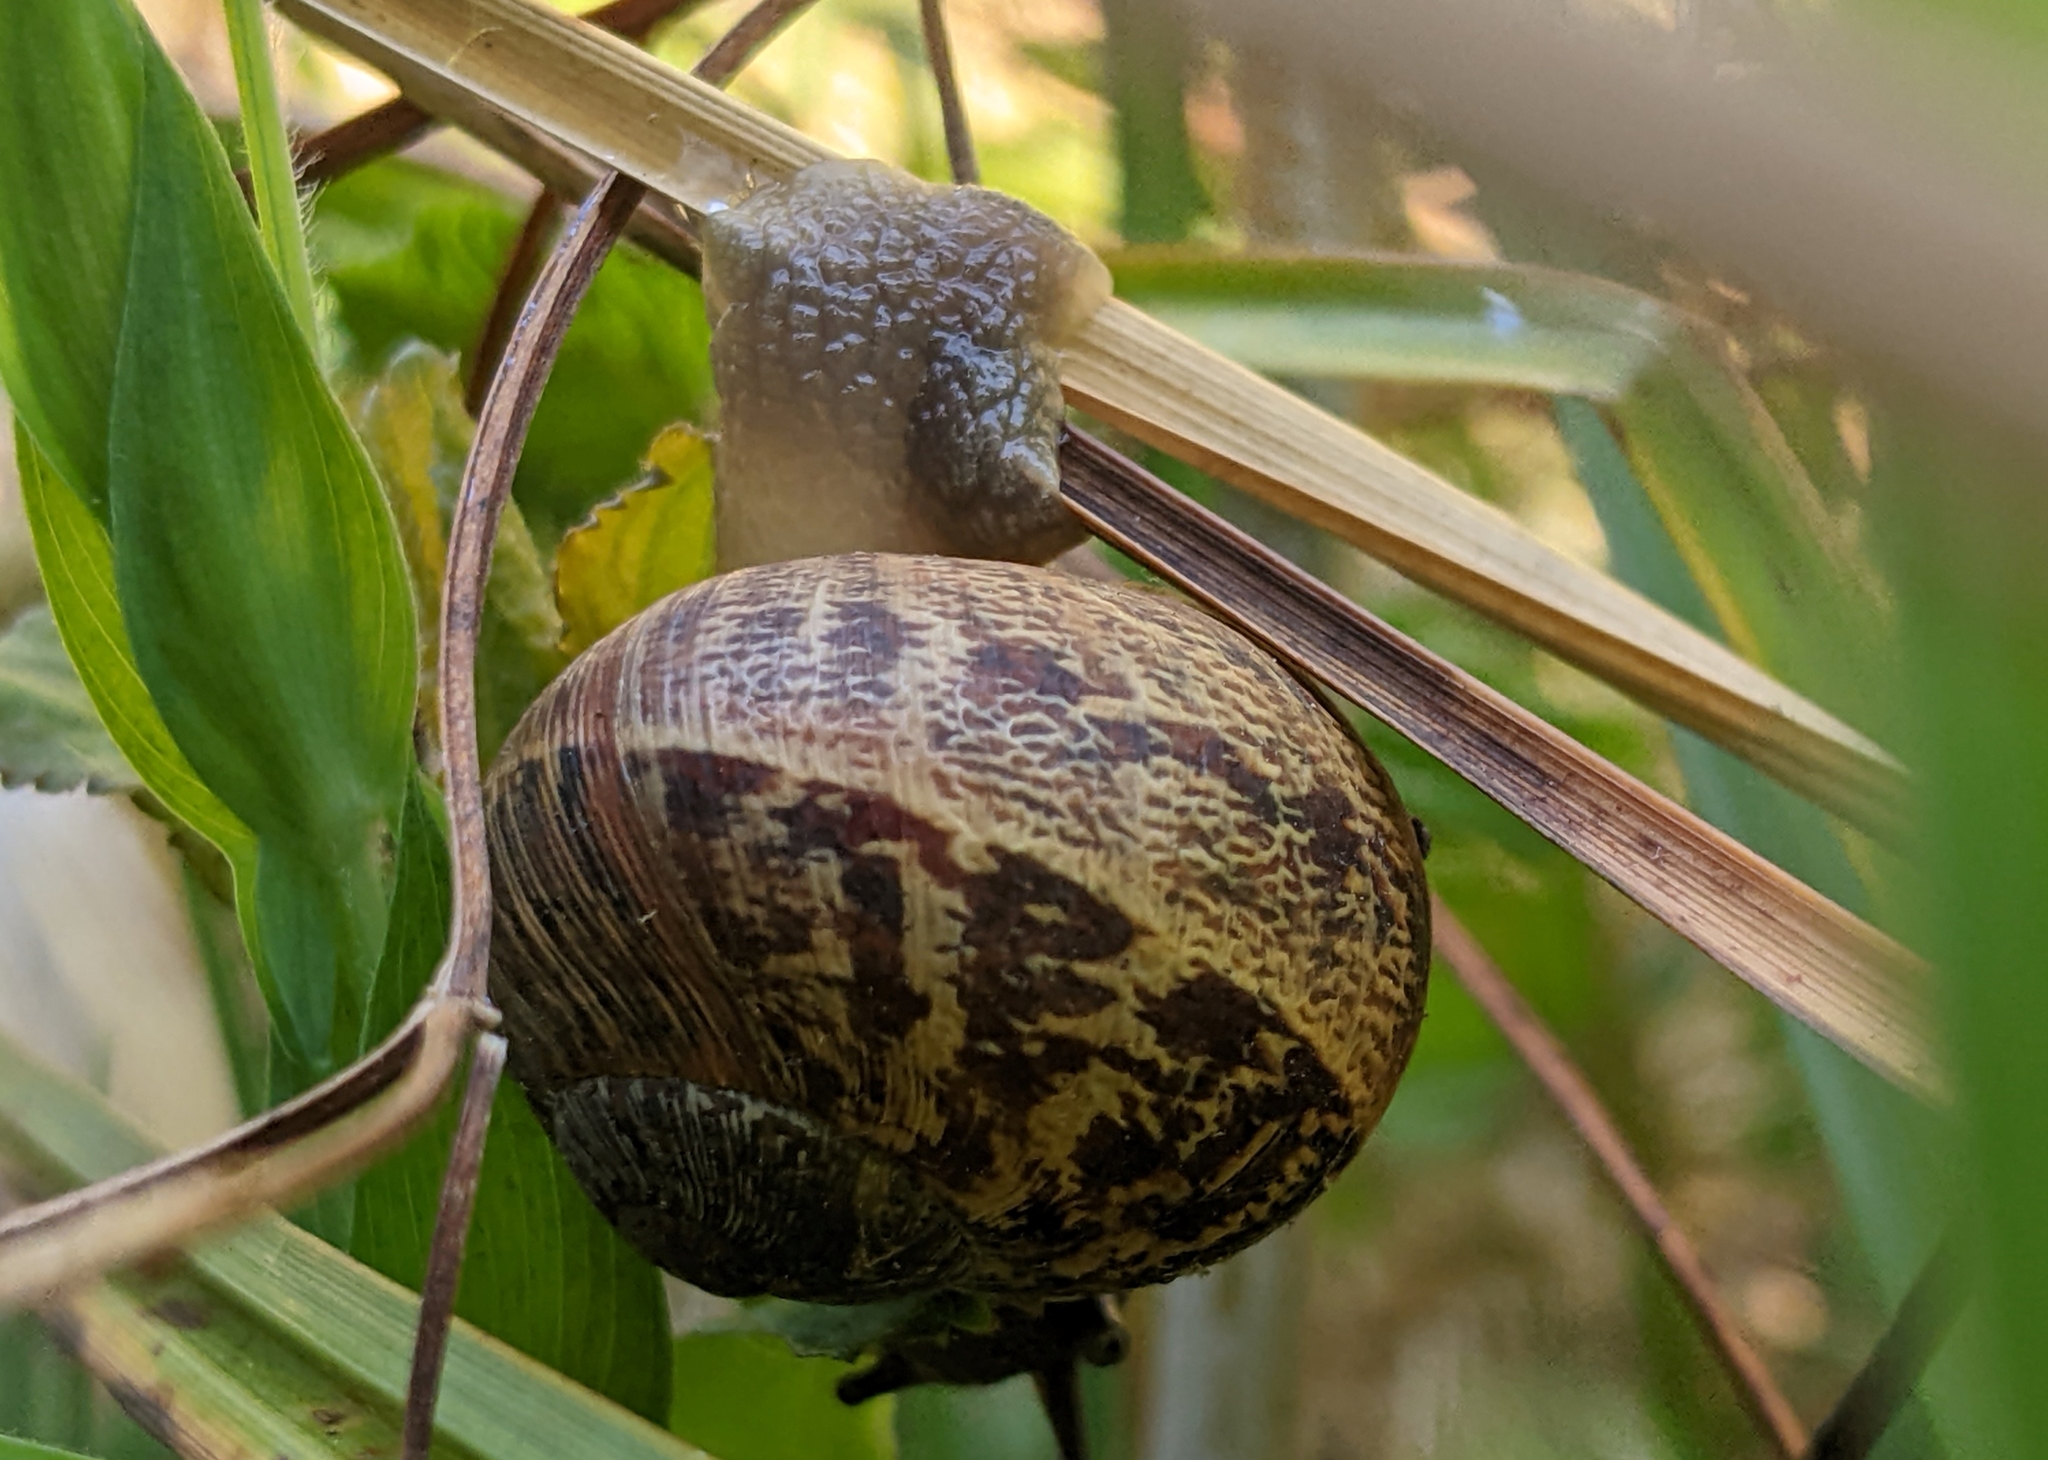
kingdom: Animalia
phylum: Mollusca
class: Gastropoda
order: Stylommatophora
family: Helicidae
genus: Cornu
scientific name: Cornu aspersum
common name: Brown garden snail
